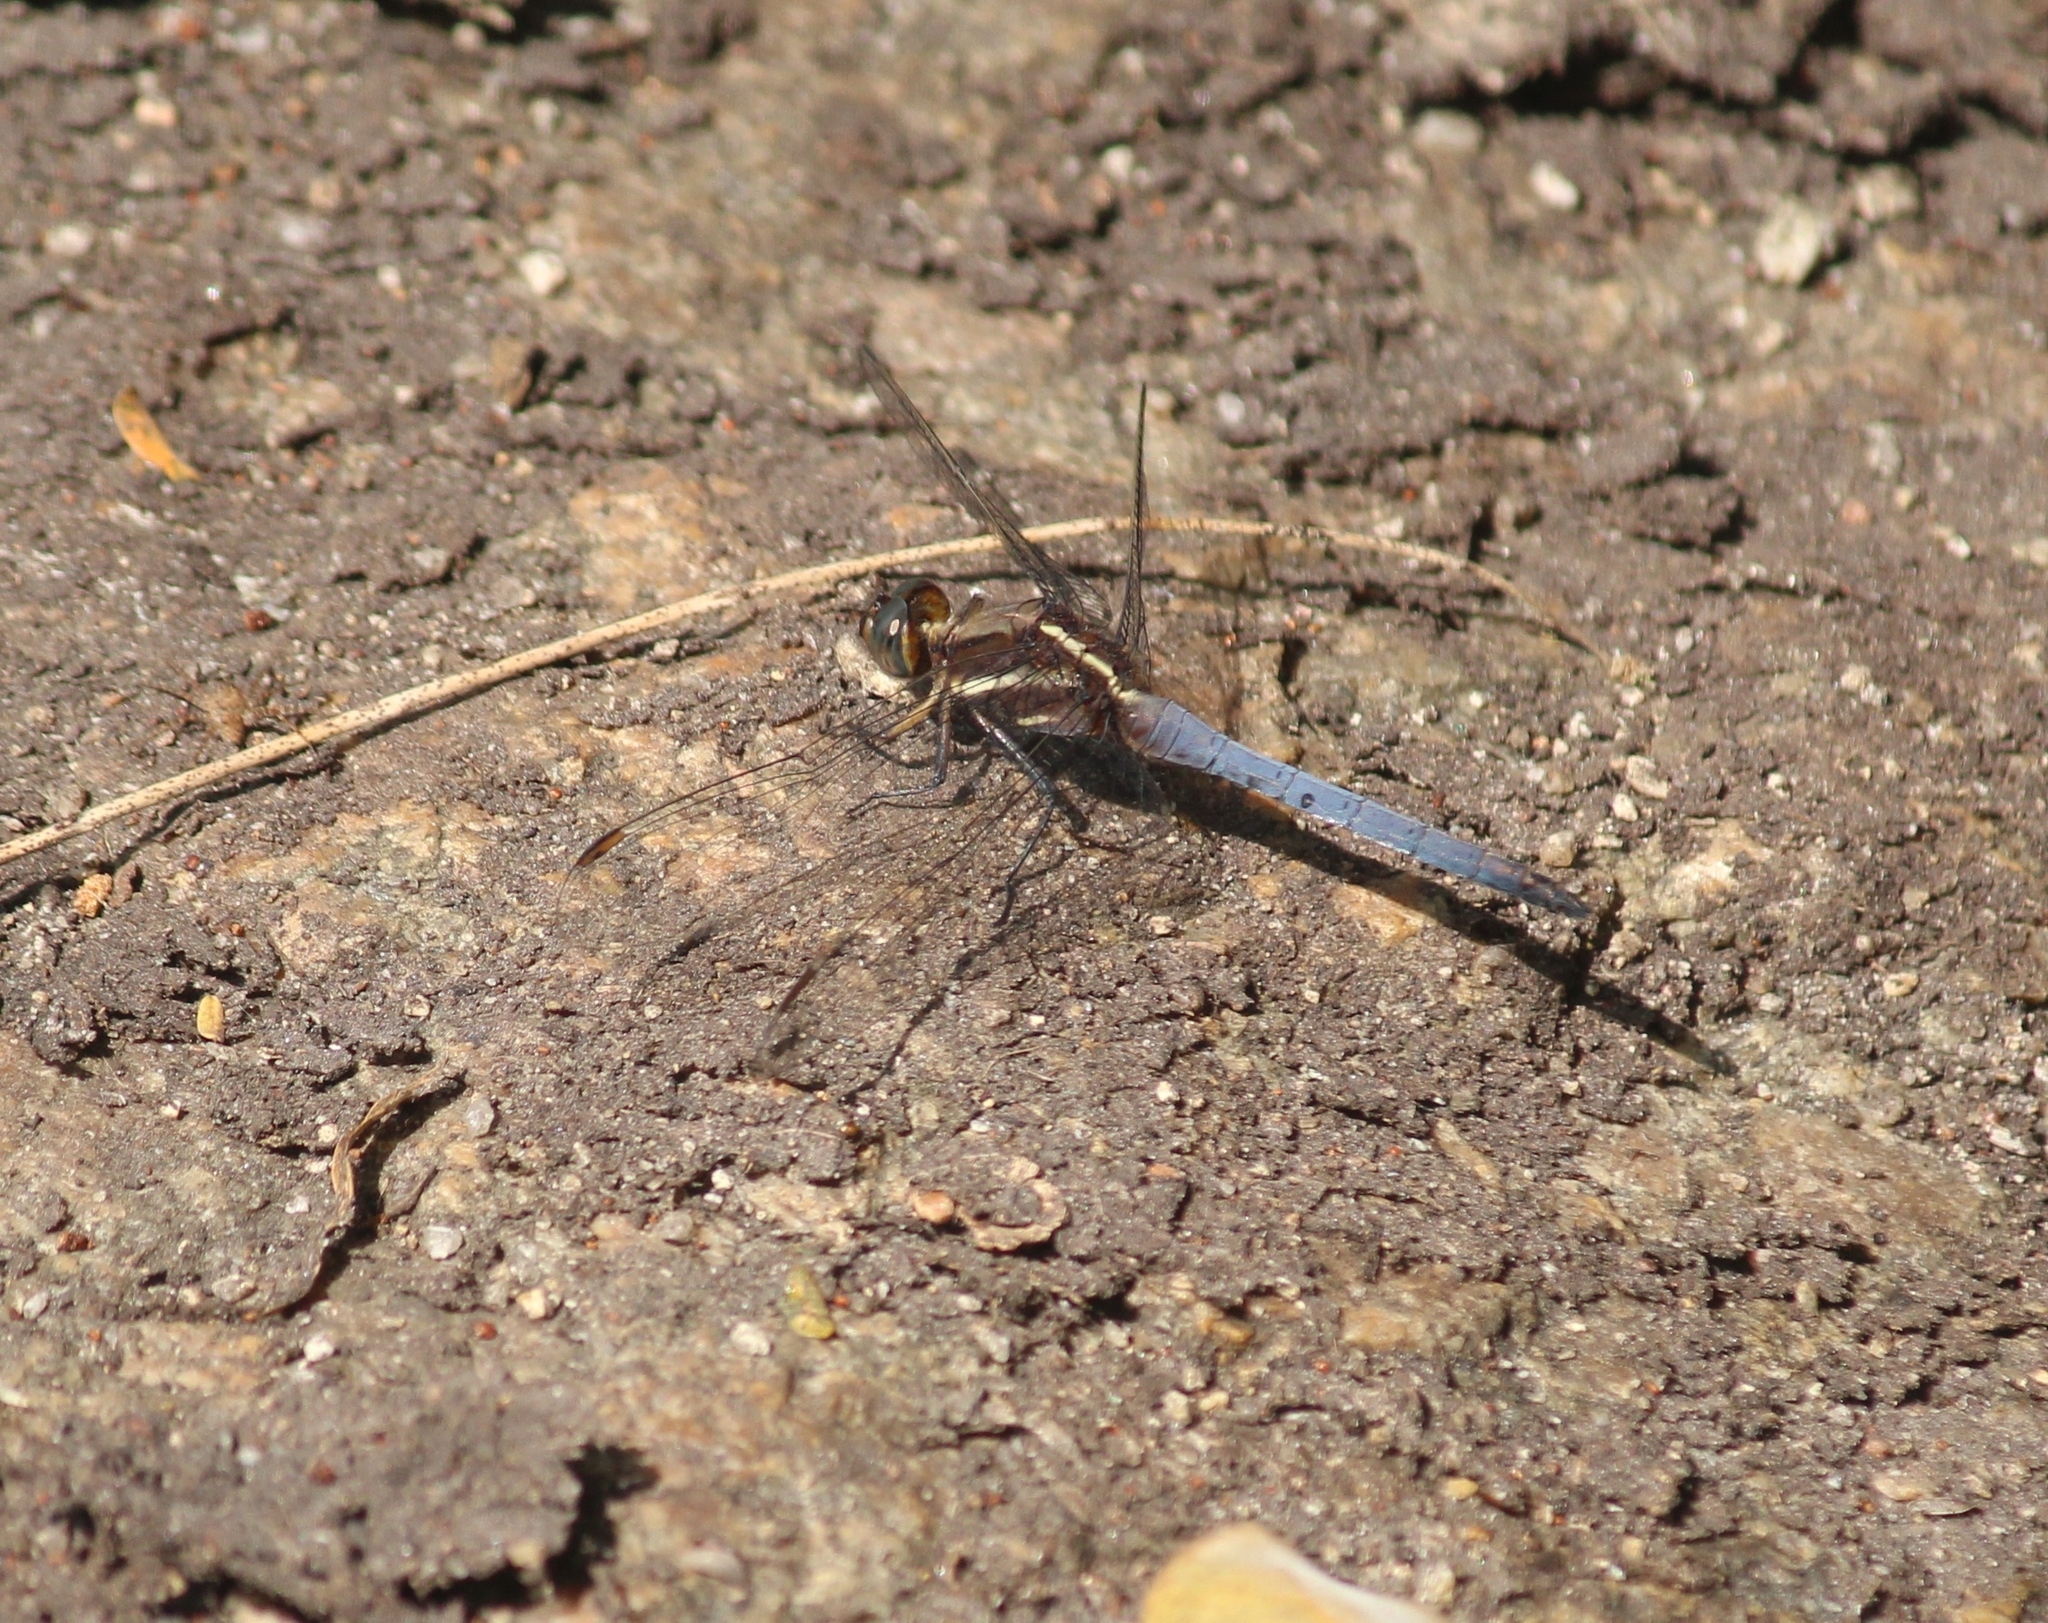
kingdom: Animalia
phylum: Arthropoda
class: Insecta
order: Odonata
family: Libellulidae
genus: Orthetrum
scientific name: Orthetrum glaucum
